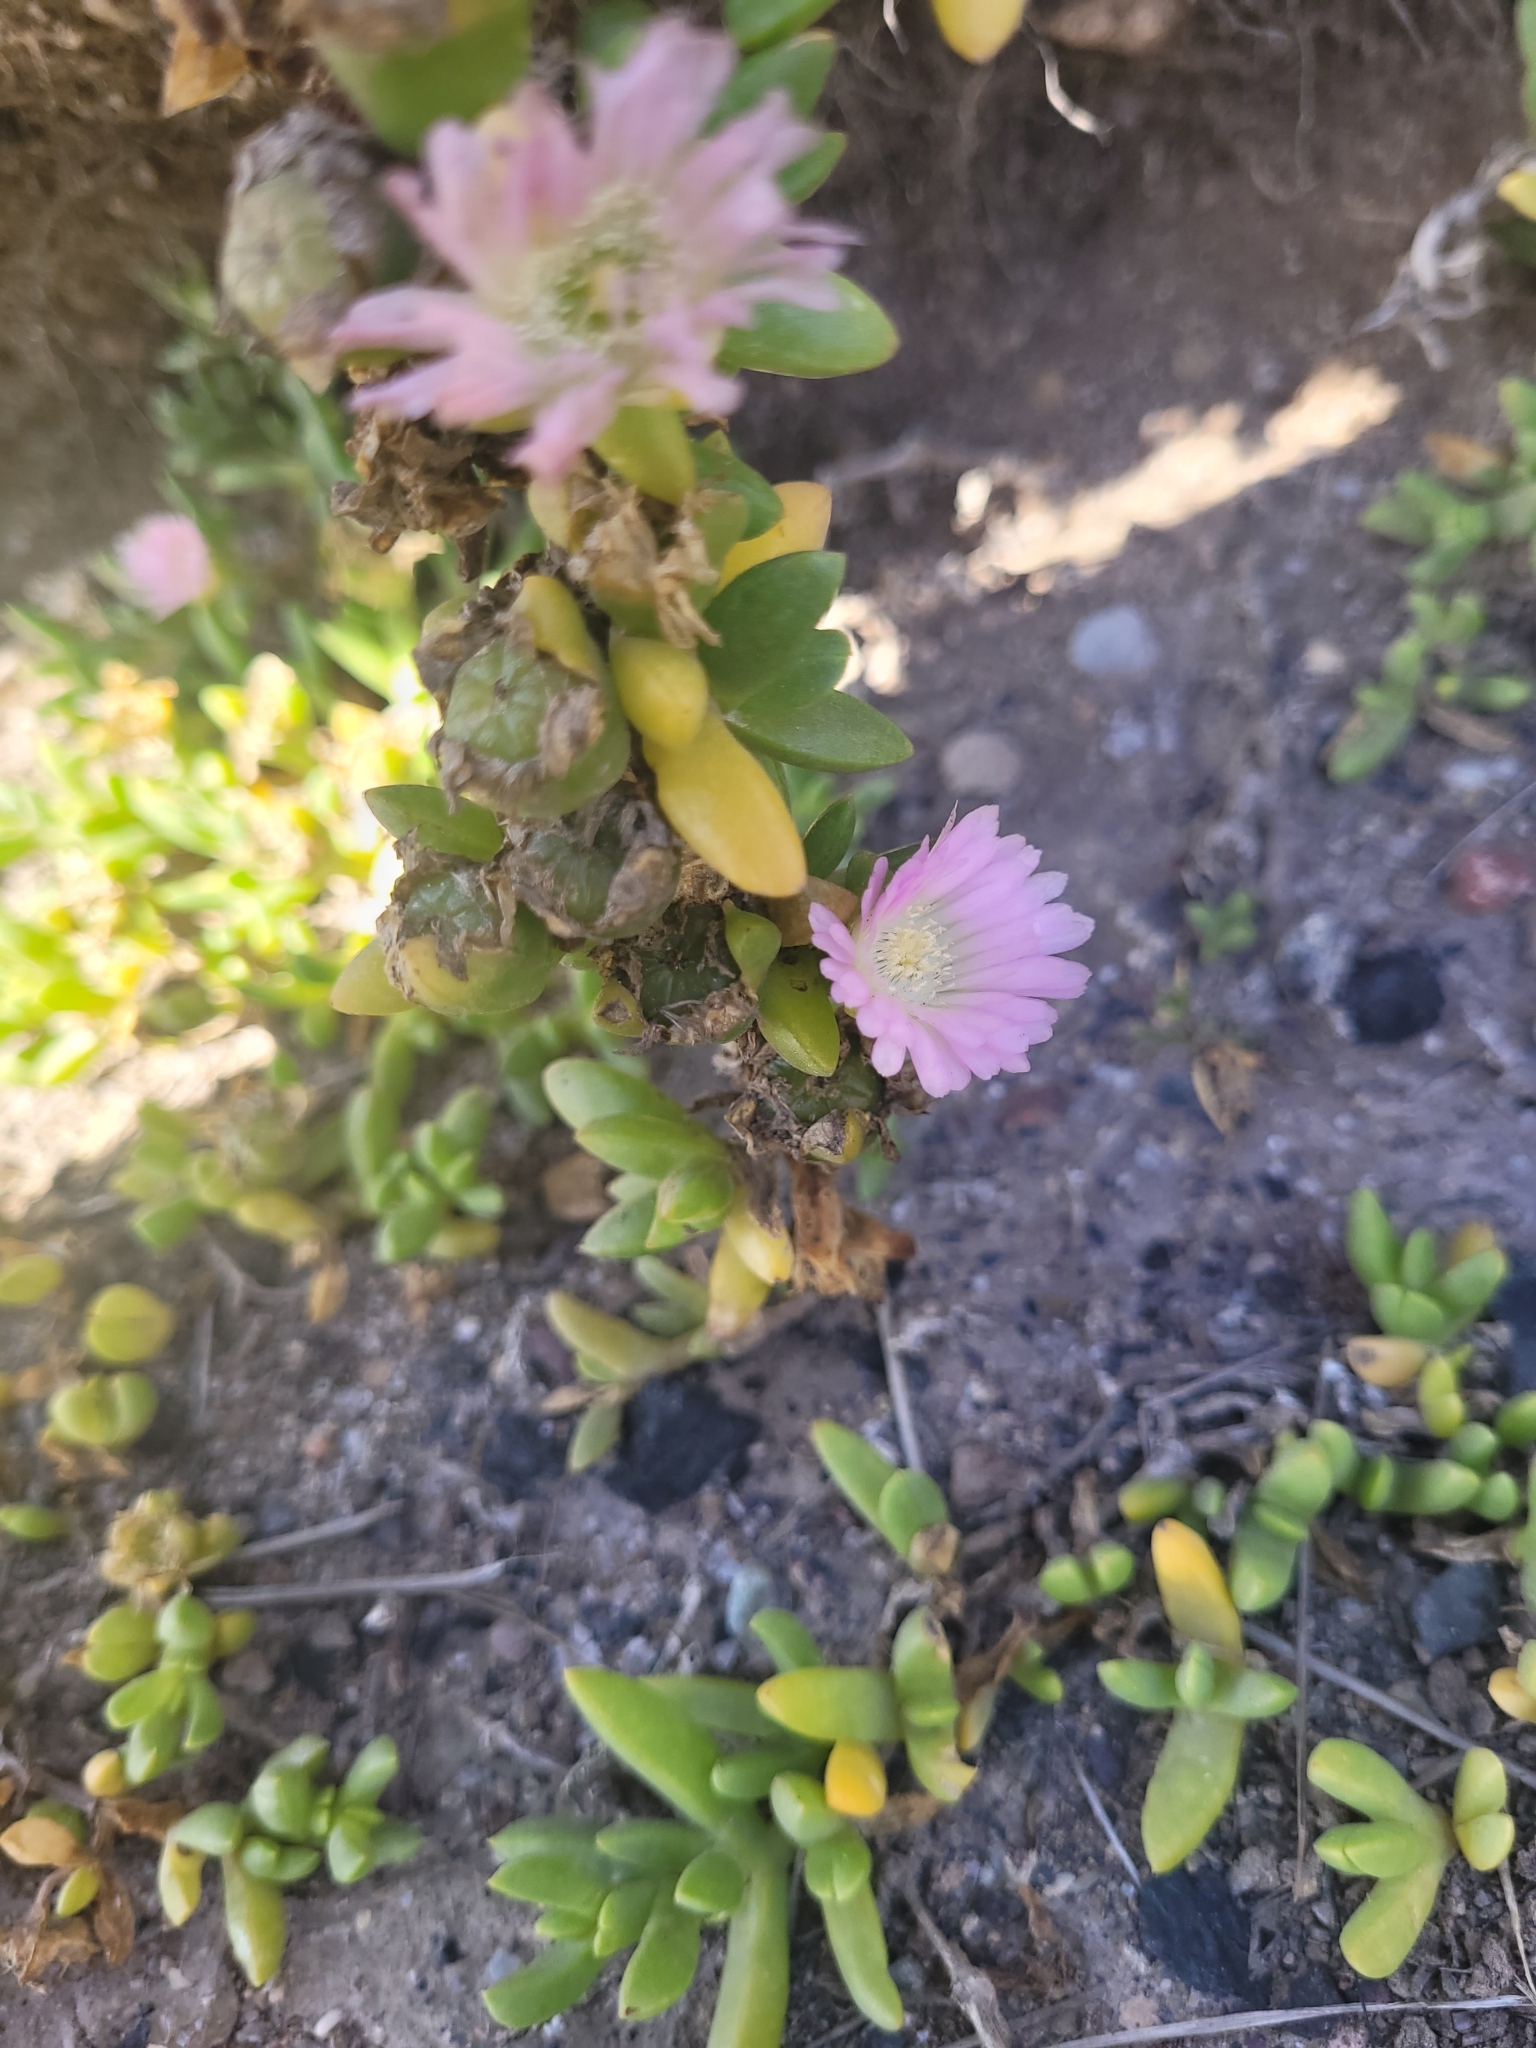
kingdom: Plantae
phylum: Tracheophyta
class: Magnoliopsida
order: Caryophyllales
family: Aizoaceae
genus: Disphyma
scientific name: Disphyma australe
